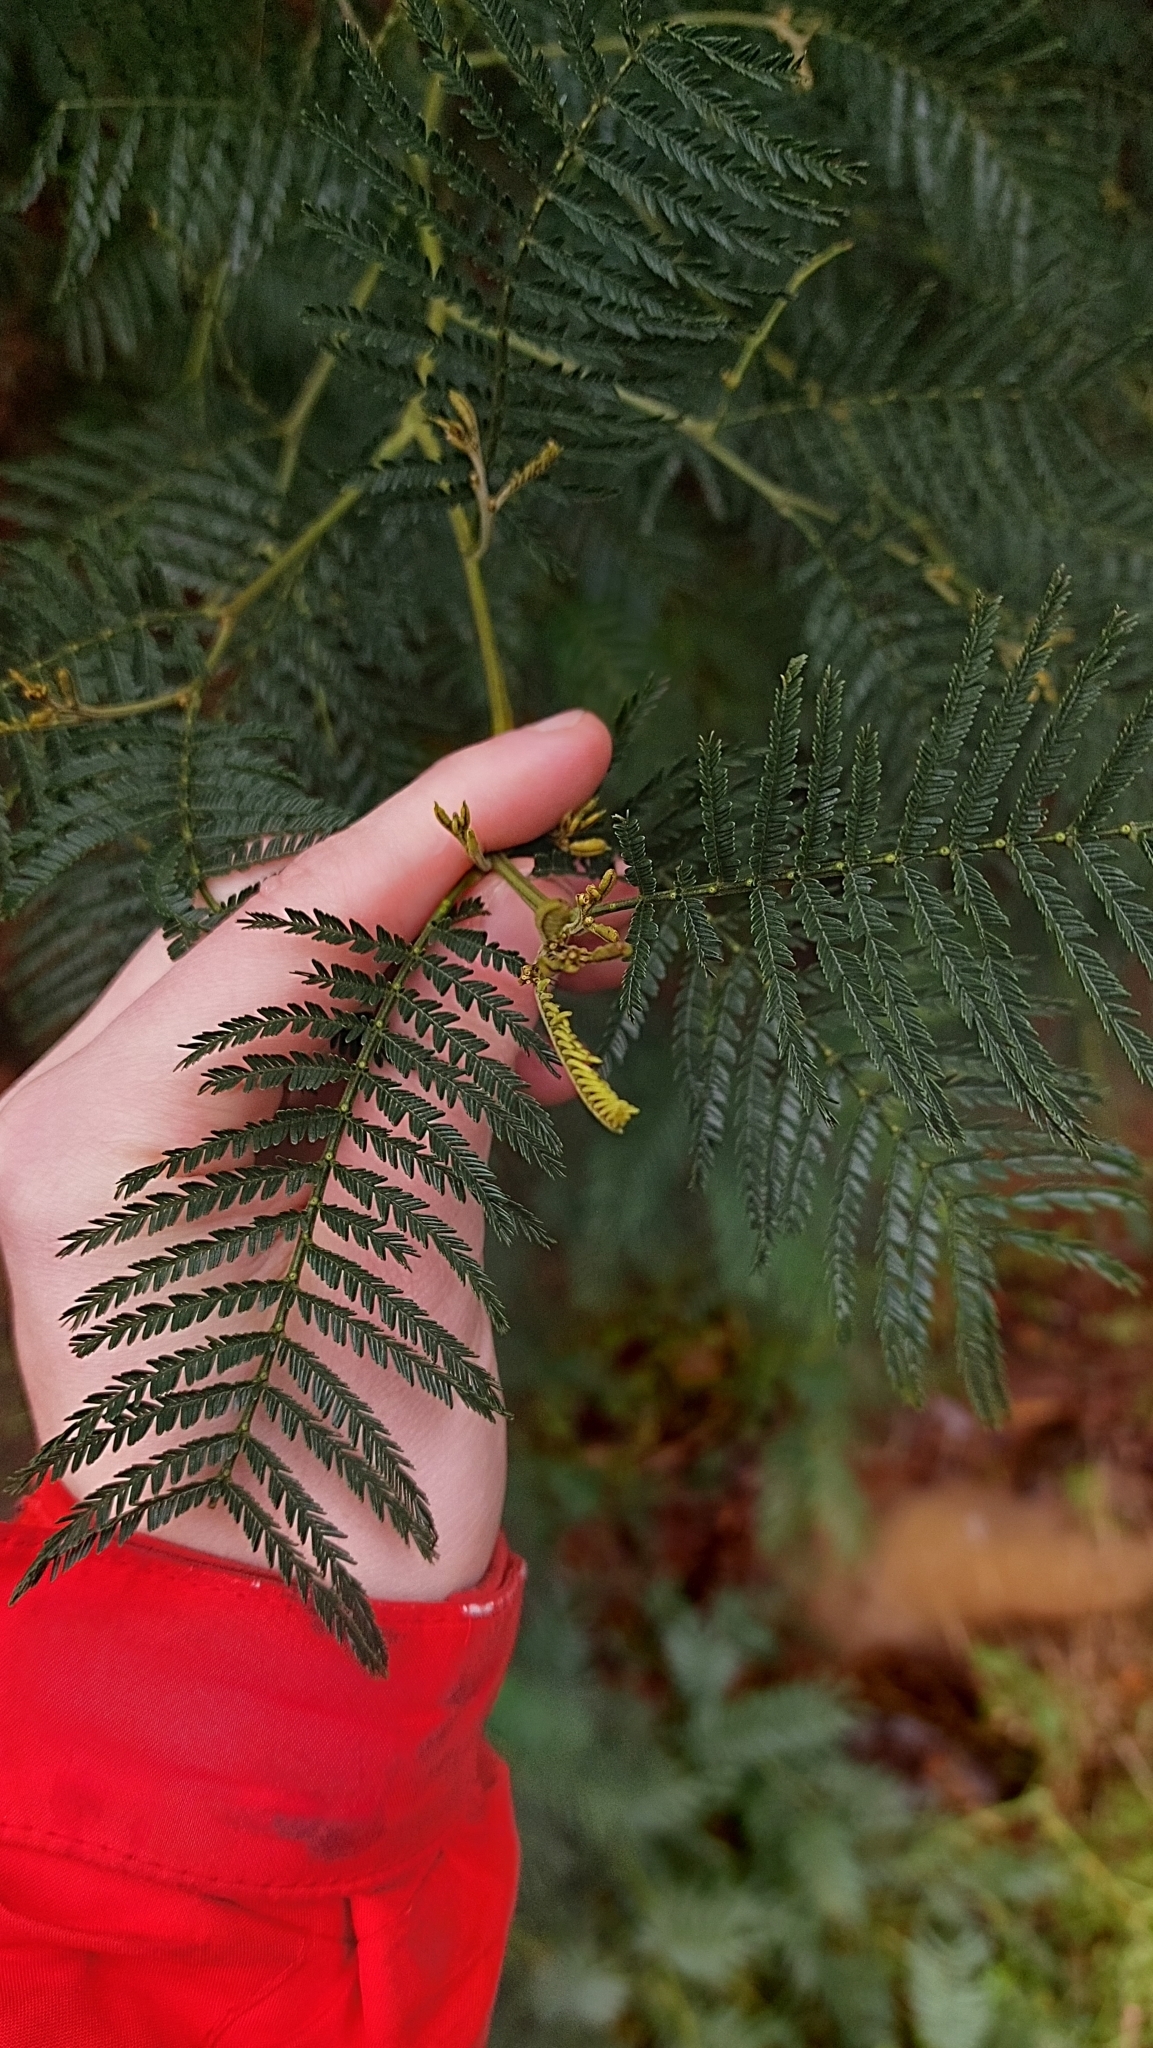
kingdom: Plantae
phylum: Tracheophyta
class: Magnoliopsida
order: Fabales
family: Fabaceae
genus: Acacia
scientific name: Acacia mearnsii
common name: Black wattle
